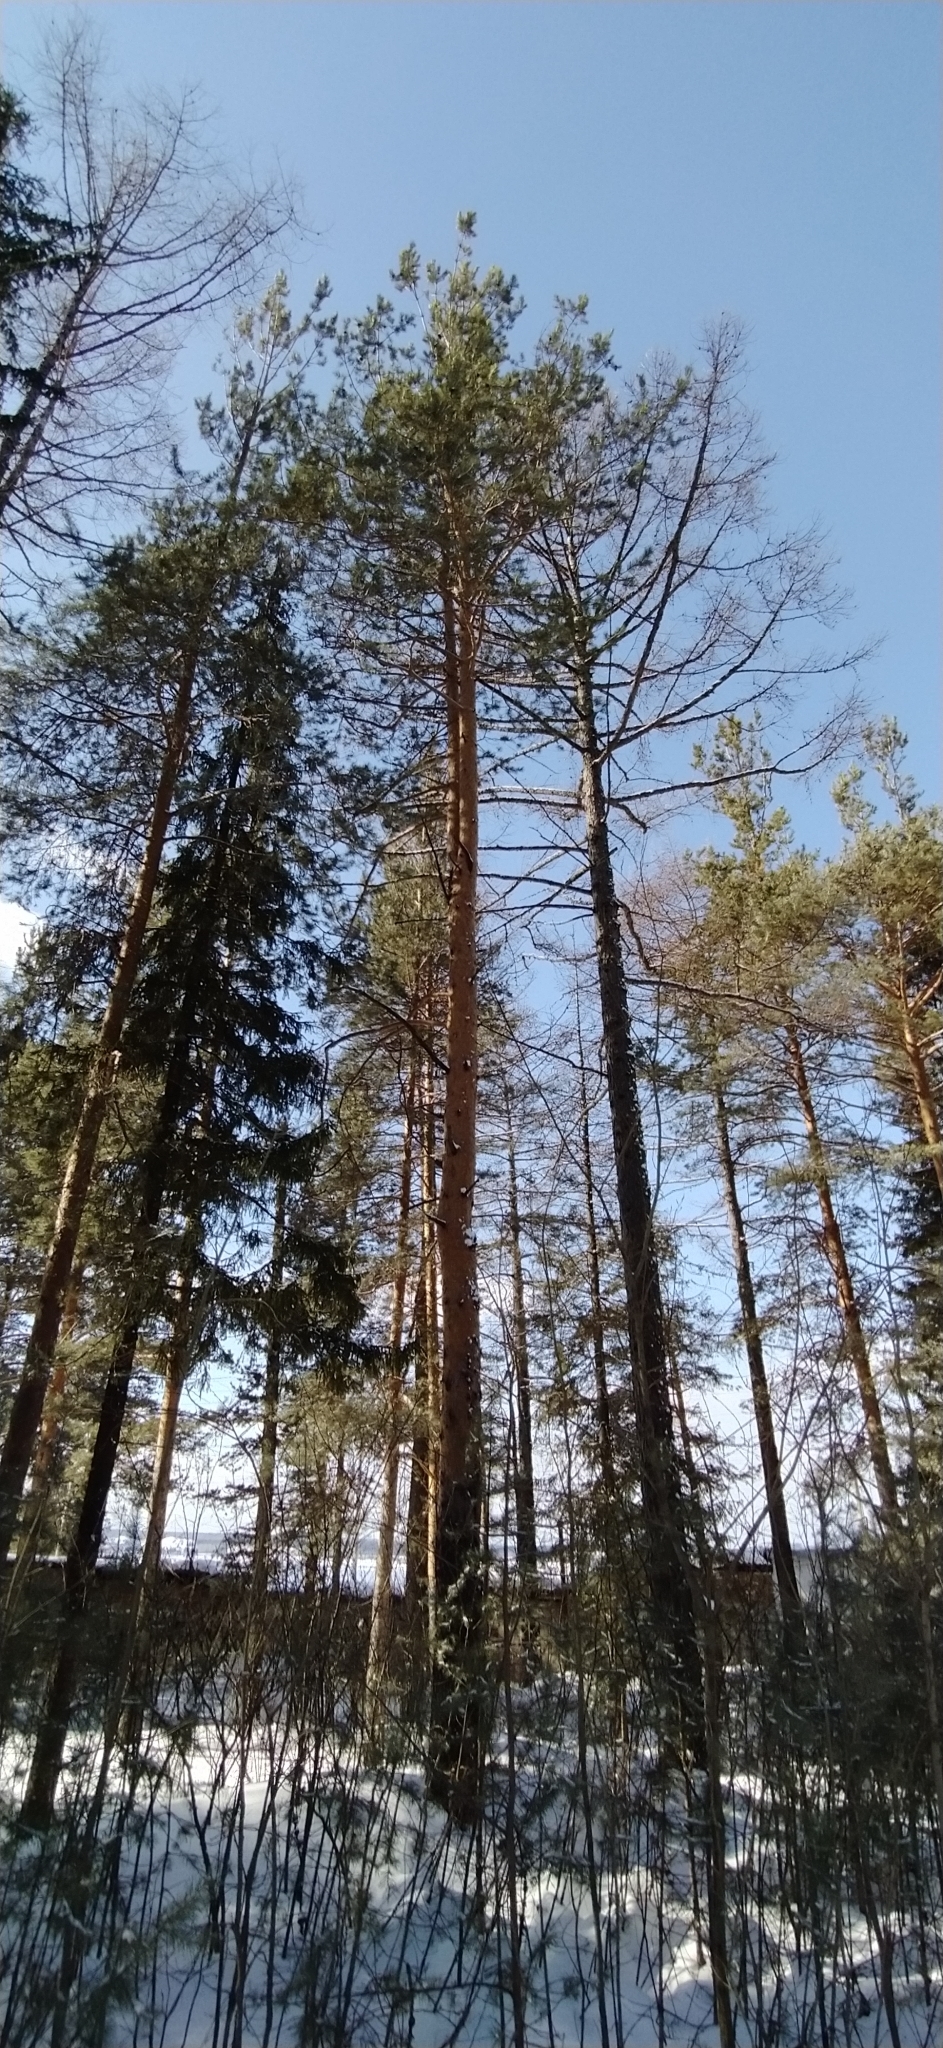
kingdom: Plantae
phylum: Tracheophyta
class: Pinopsida
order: Pinales
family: Pinaceae
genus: Pinus
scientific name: Pinus sylvestris
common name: Scots pine
